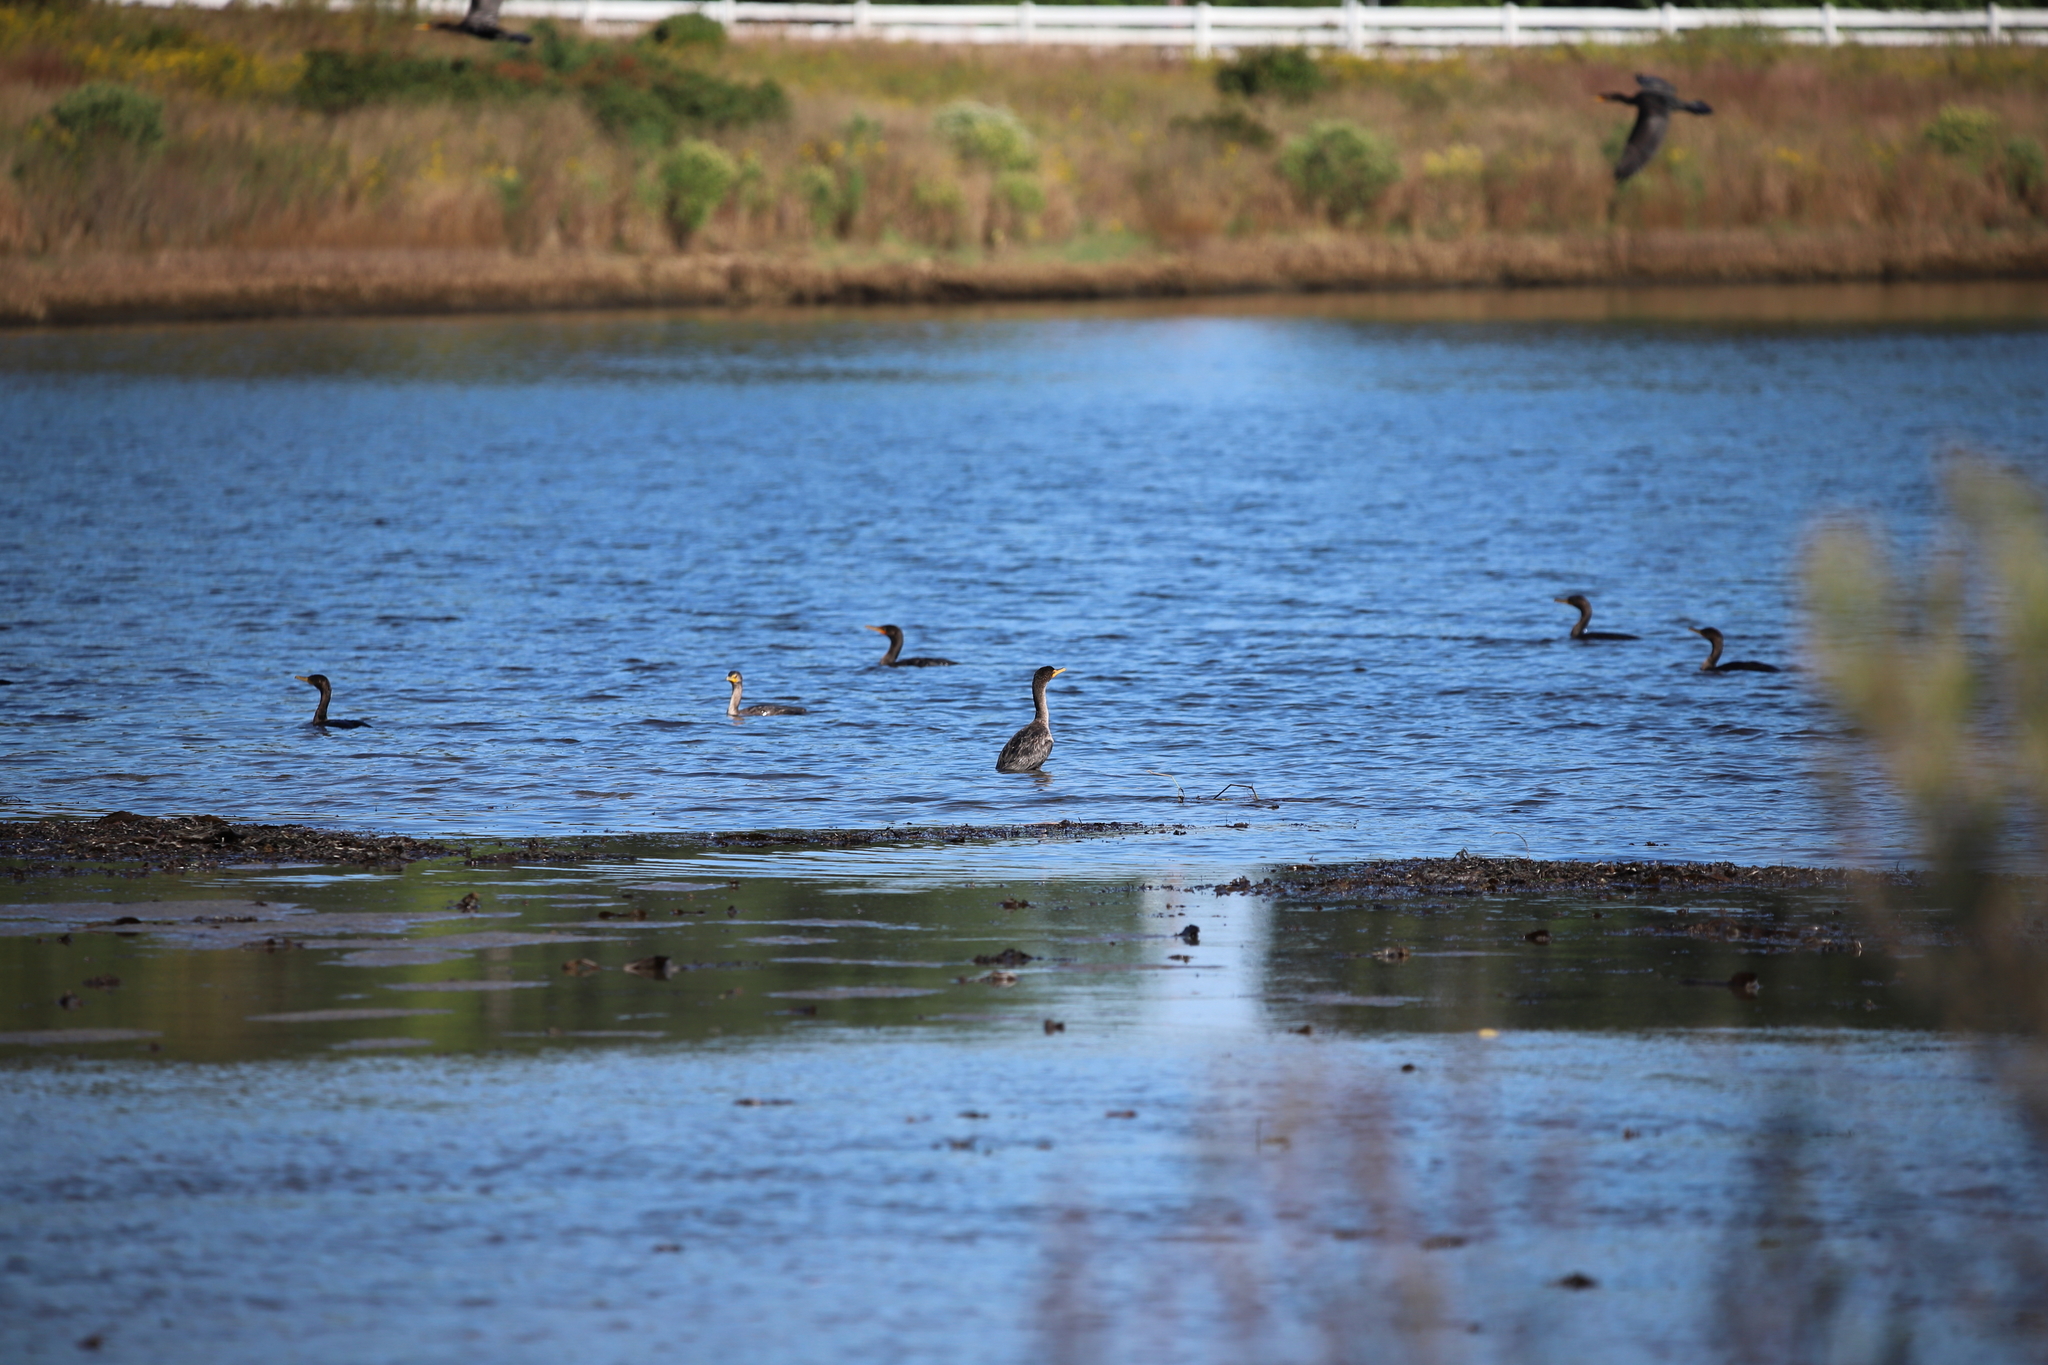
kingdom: Animalia
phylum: Chordata
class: Aves
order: Suliformes
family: Phalacrocoracidae
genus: Phalacrocorax
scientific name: Phalacrocorax auritus
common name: Double-crested cormorant
